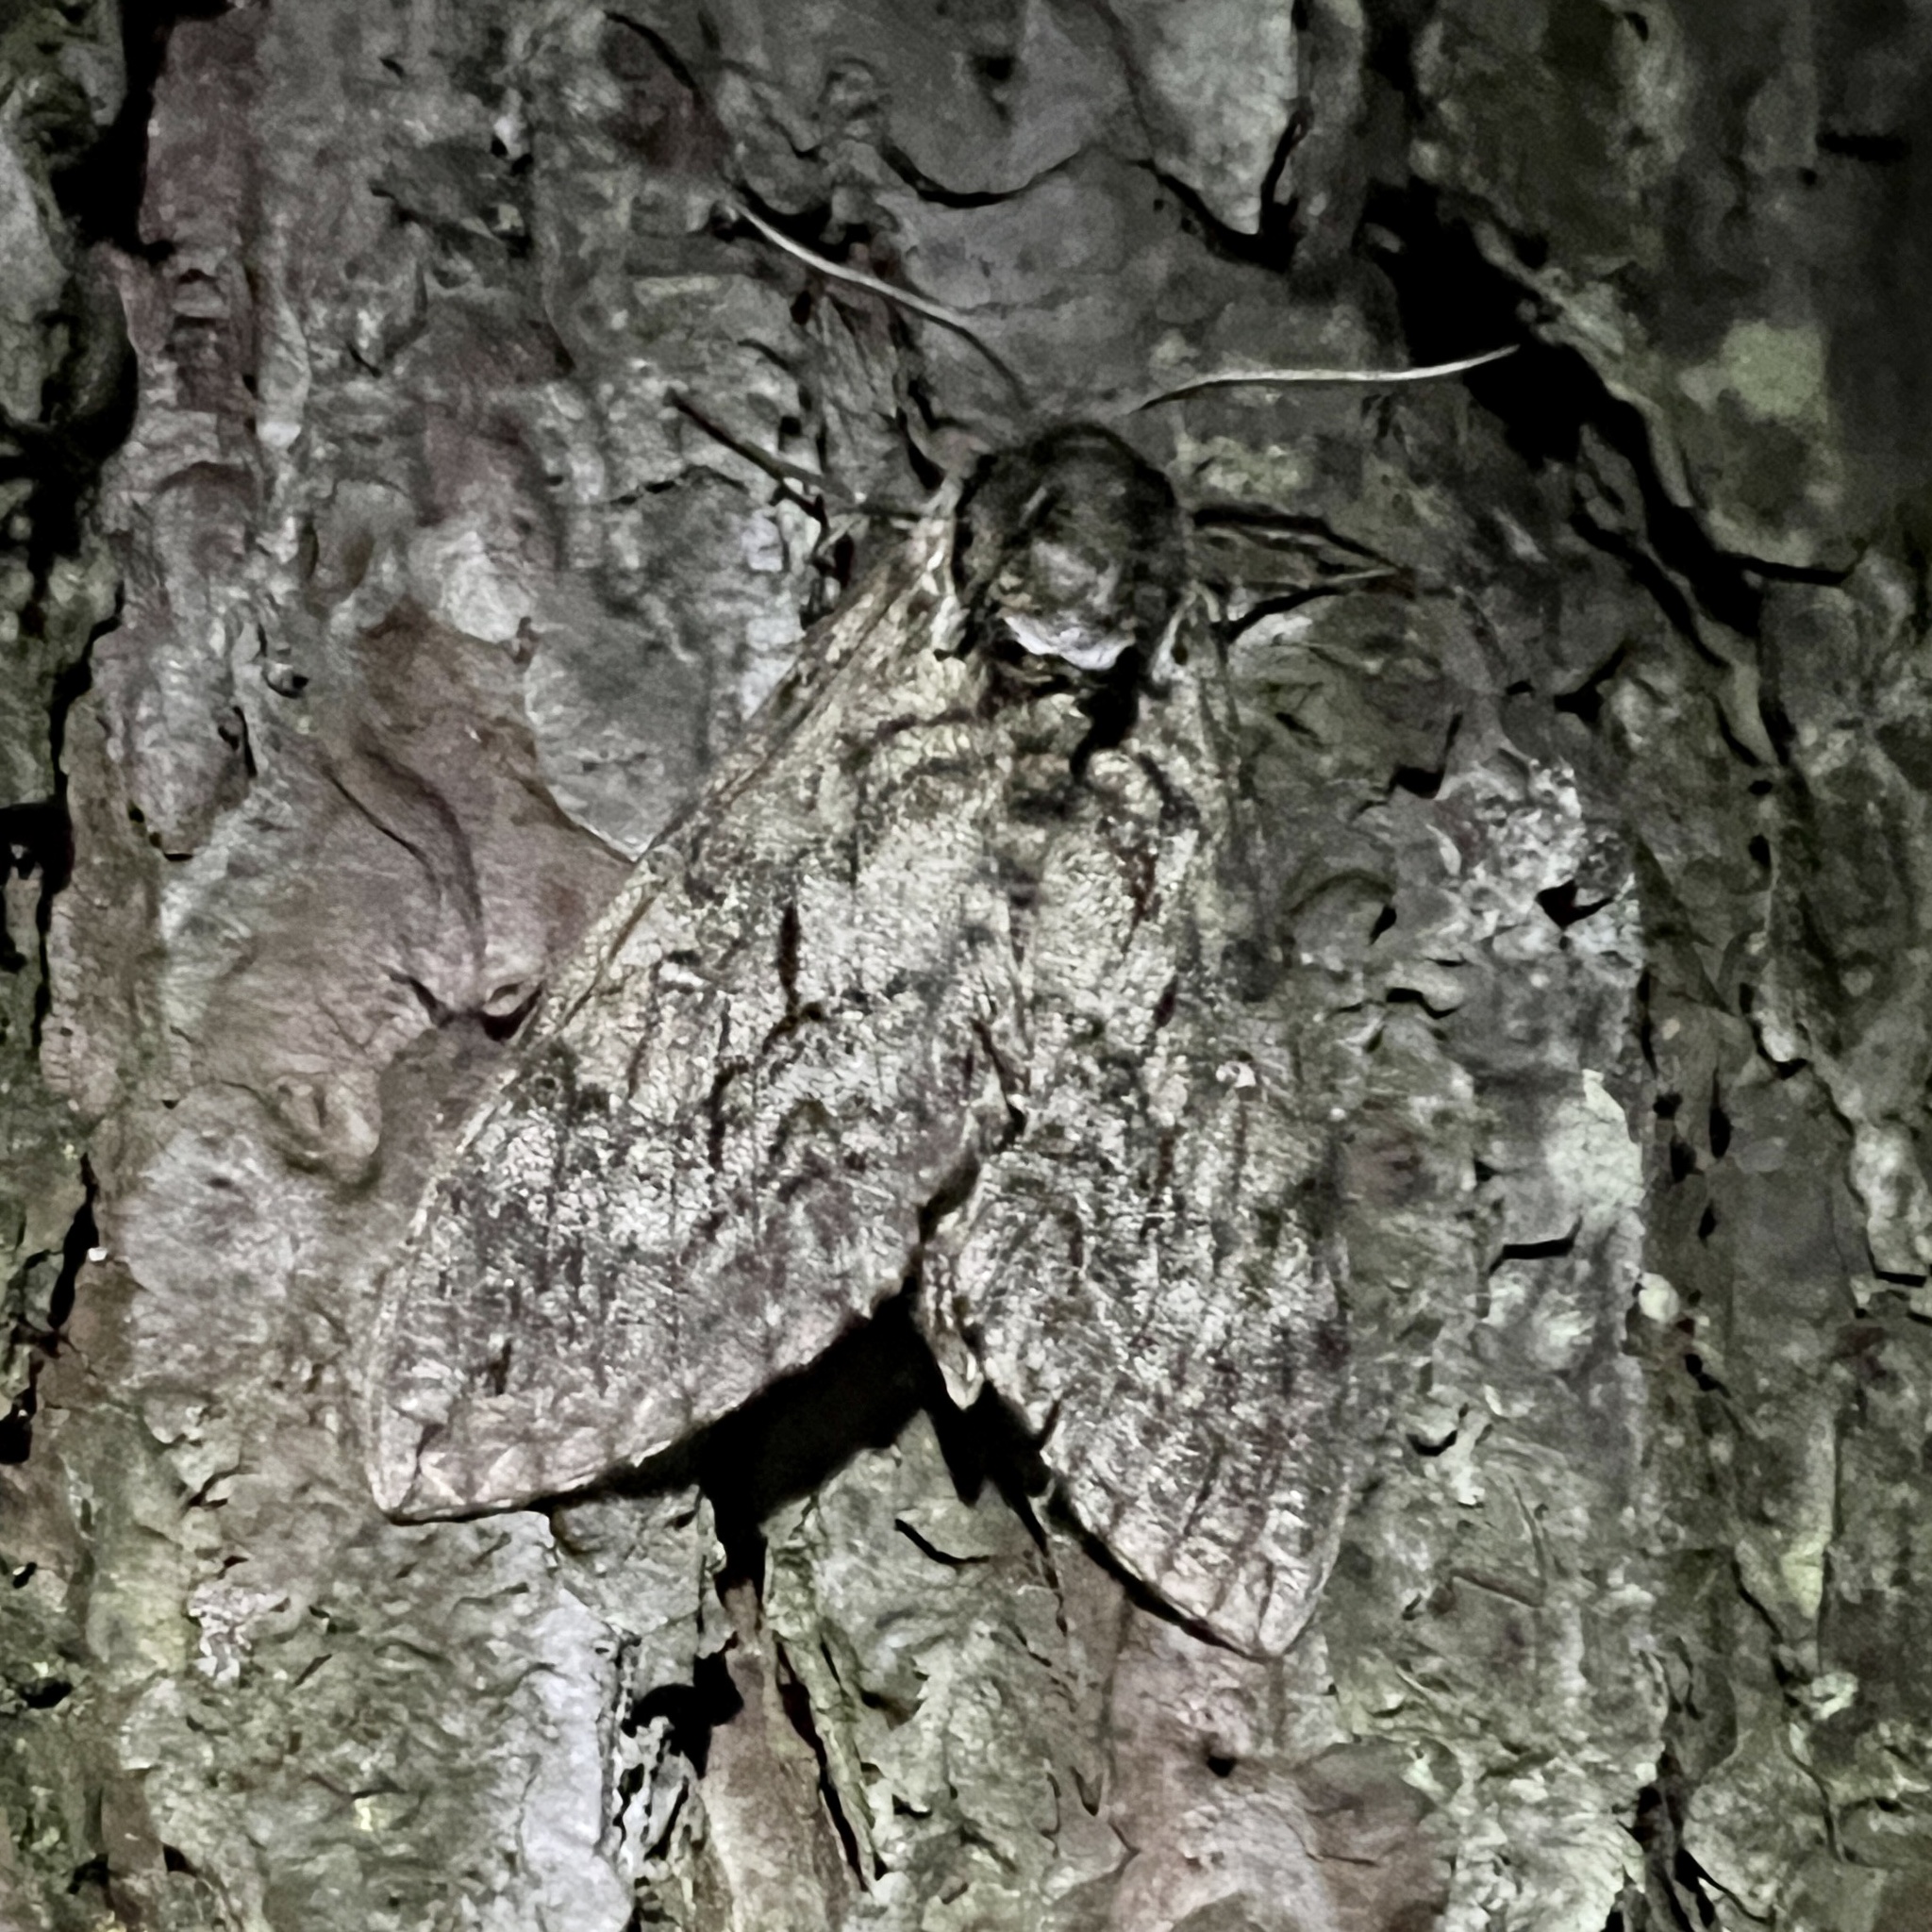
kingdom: Animalia
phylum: Arthropoda
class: Insecta
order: Lepidoptera
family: Sphingidae
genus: Ceratomia
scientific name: Ceratomia undulosa
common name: Waved sphinx
